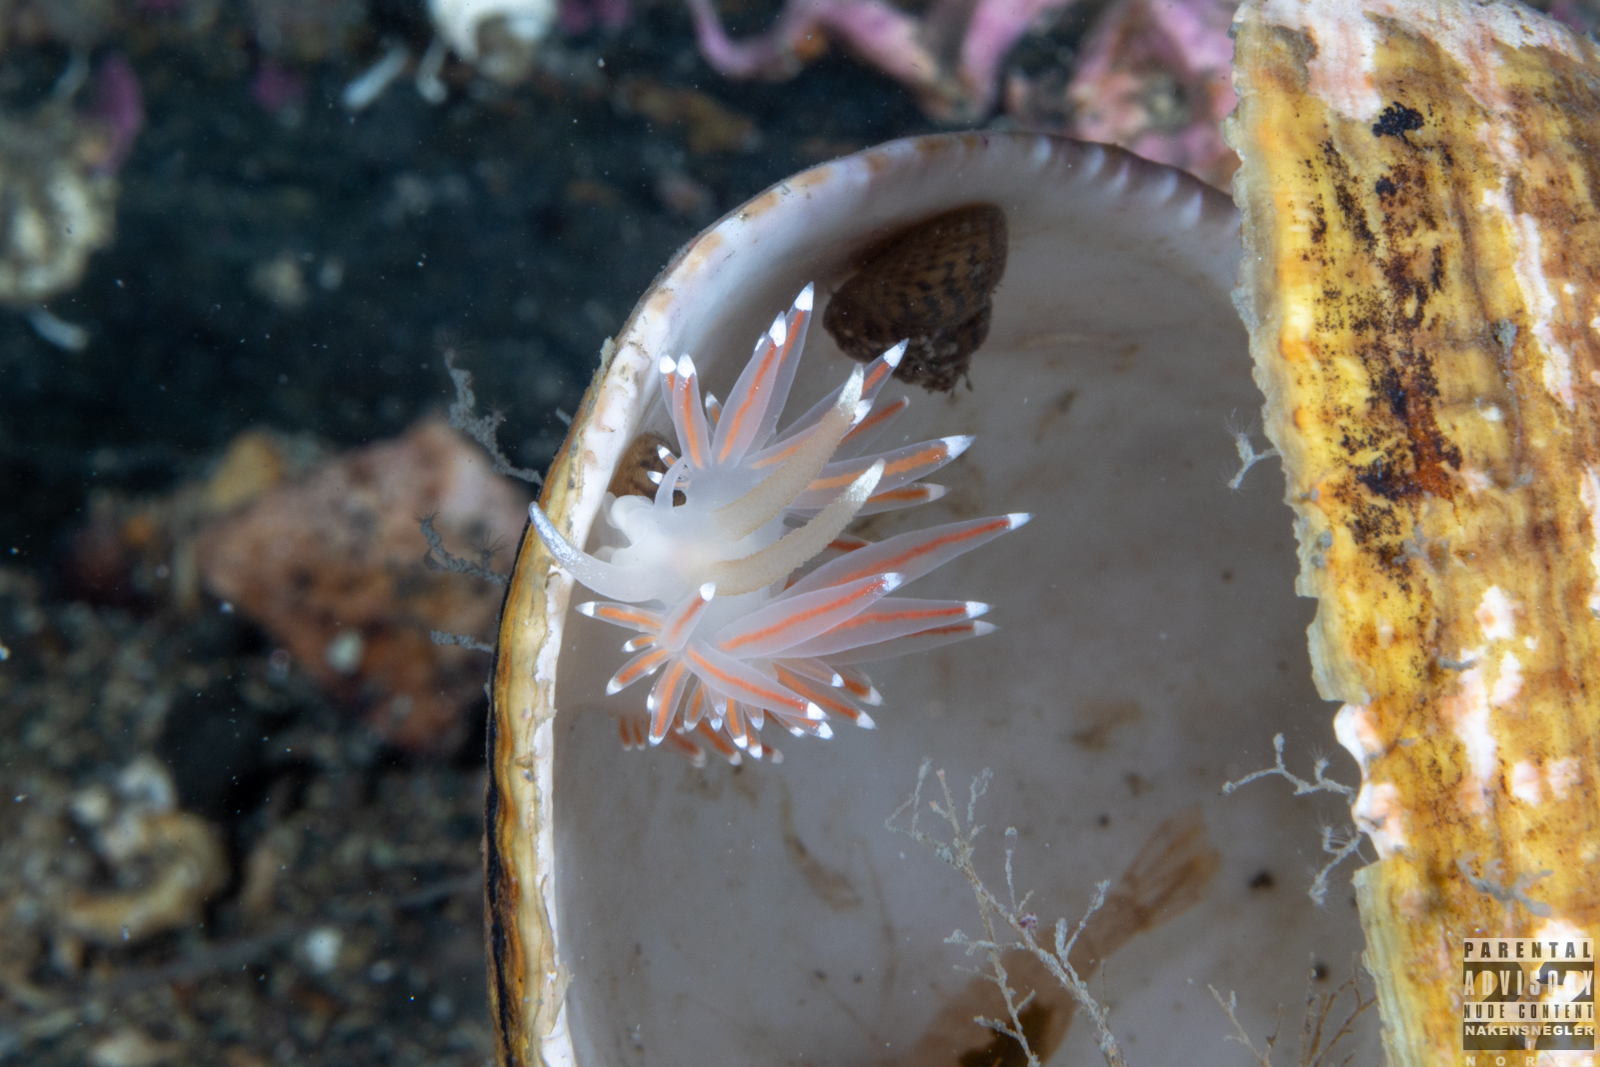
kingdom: Animalia
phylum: Mollusca
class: Gastropoda
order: Nudibranchia
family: Coryphellidae
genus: Coryphella
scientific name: Coryphella browni
